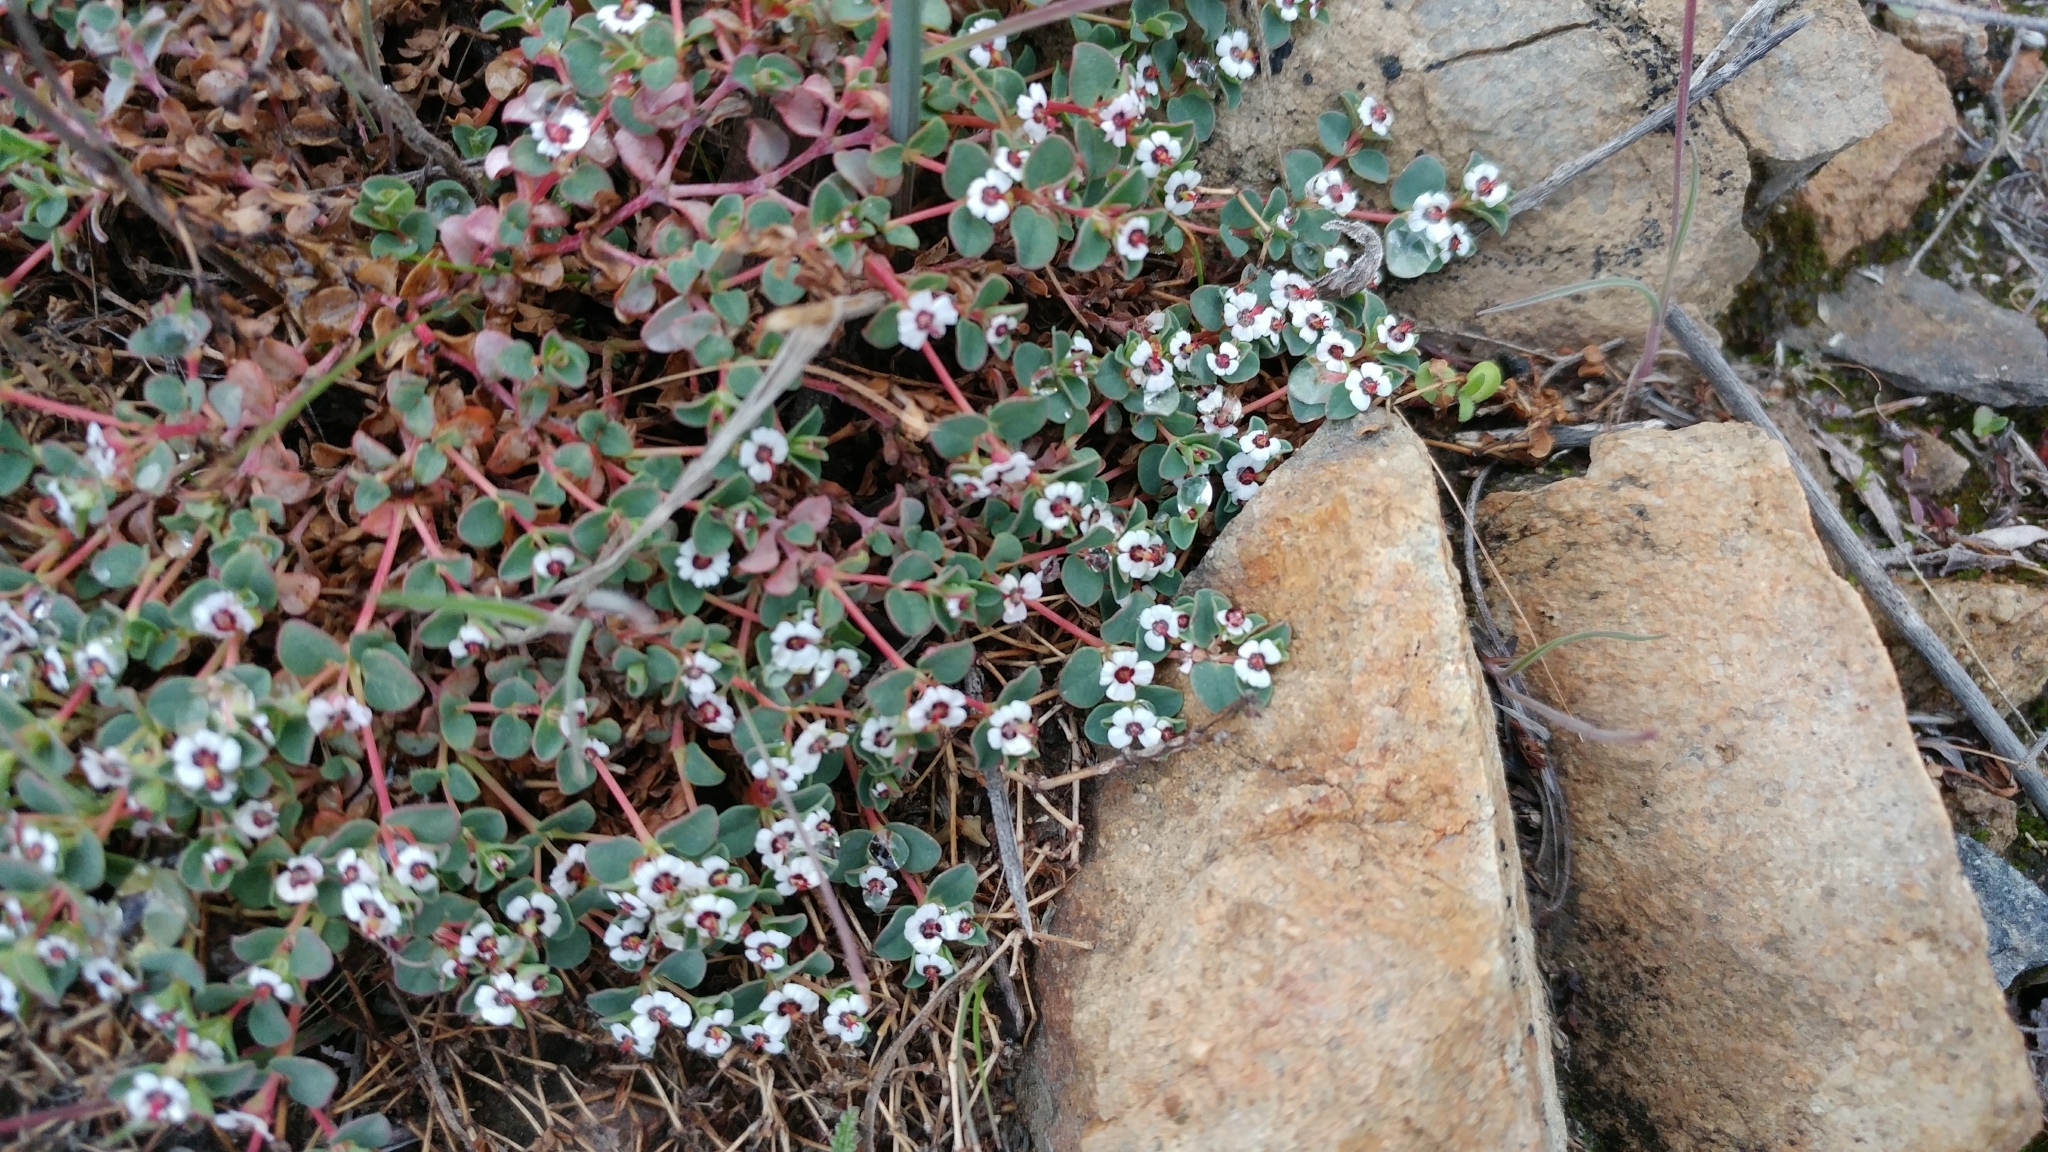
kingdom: Plantae
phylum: Tracheophyta
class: Magnoliopsida
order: Malpighiales
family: Euphorbiaceae
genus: Euphorbia
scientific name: Euphorbia polycarpa
